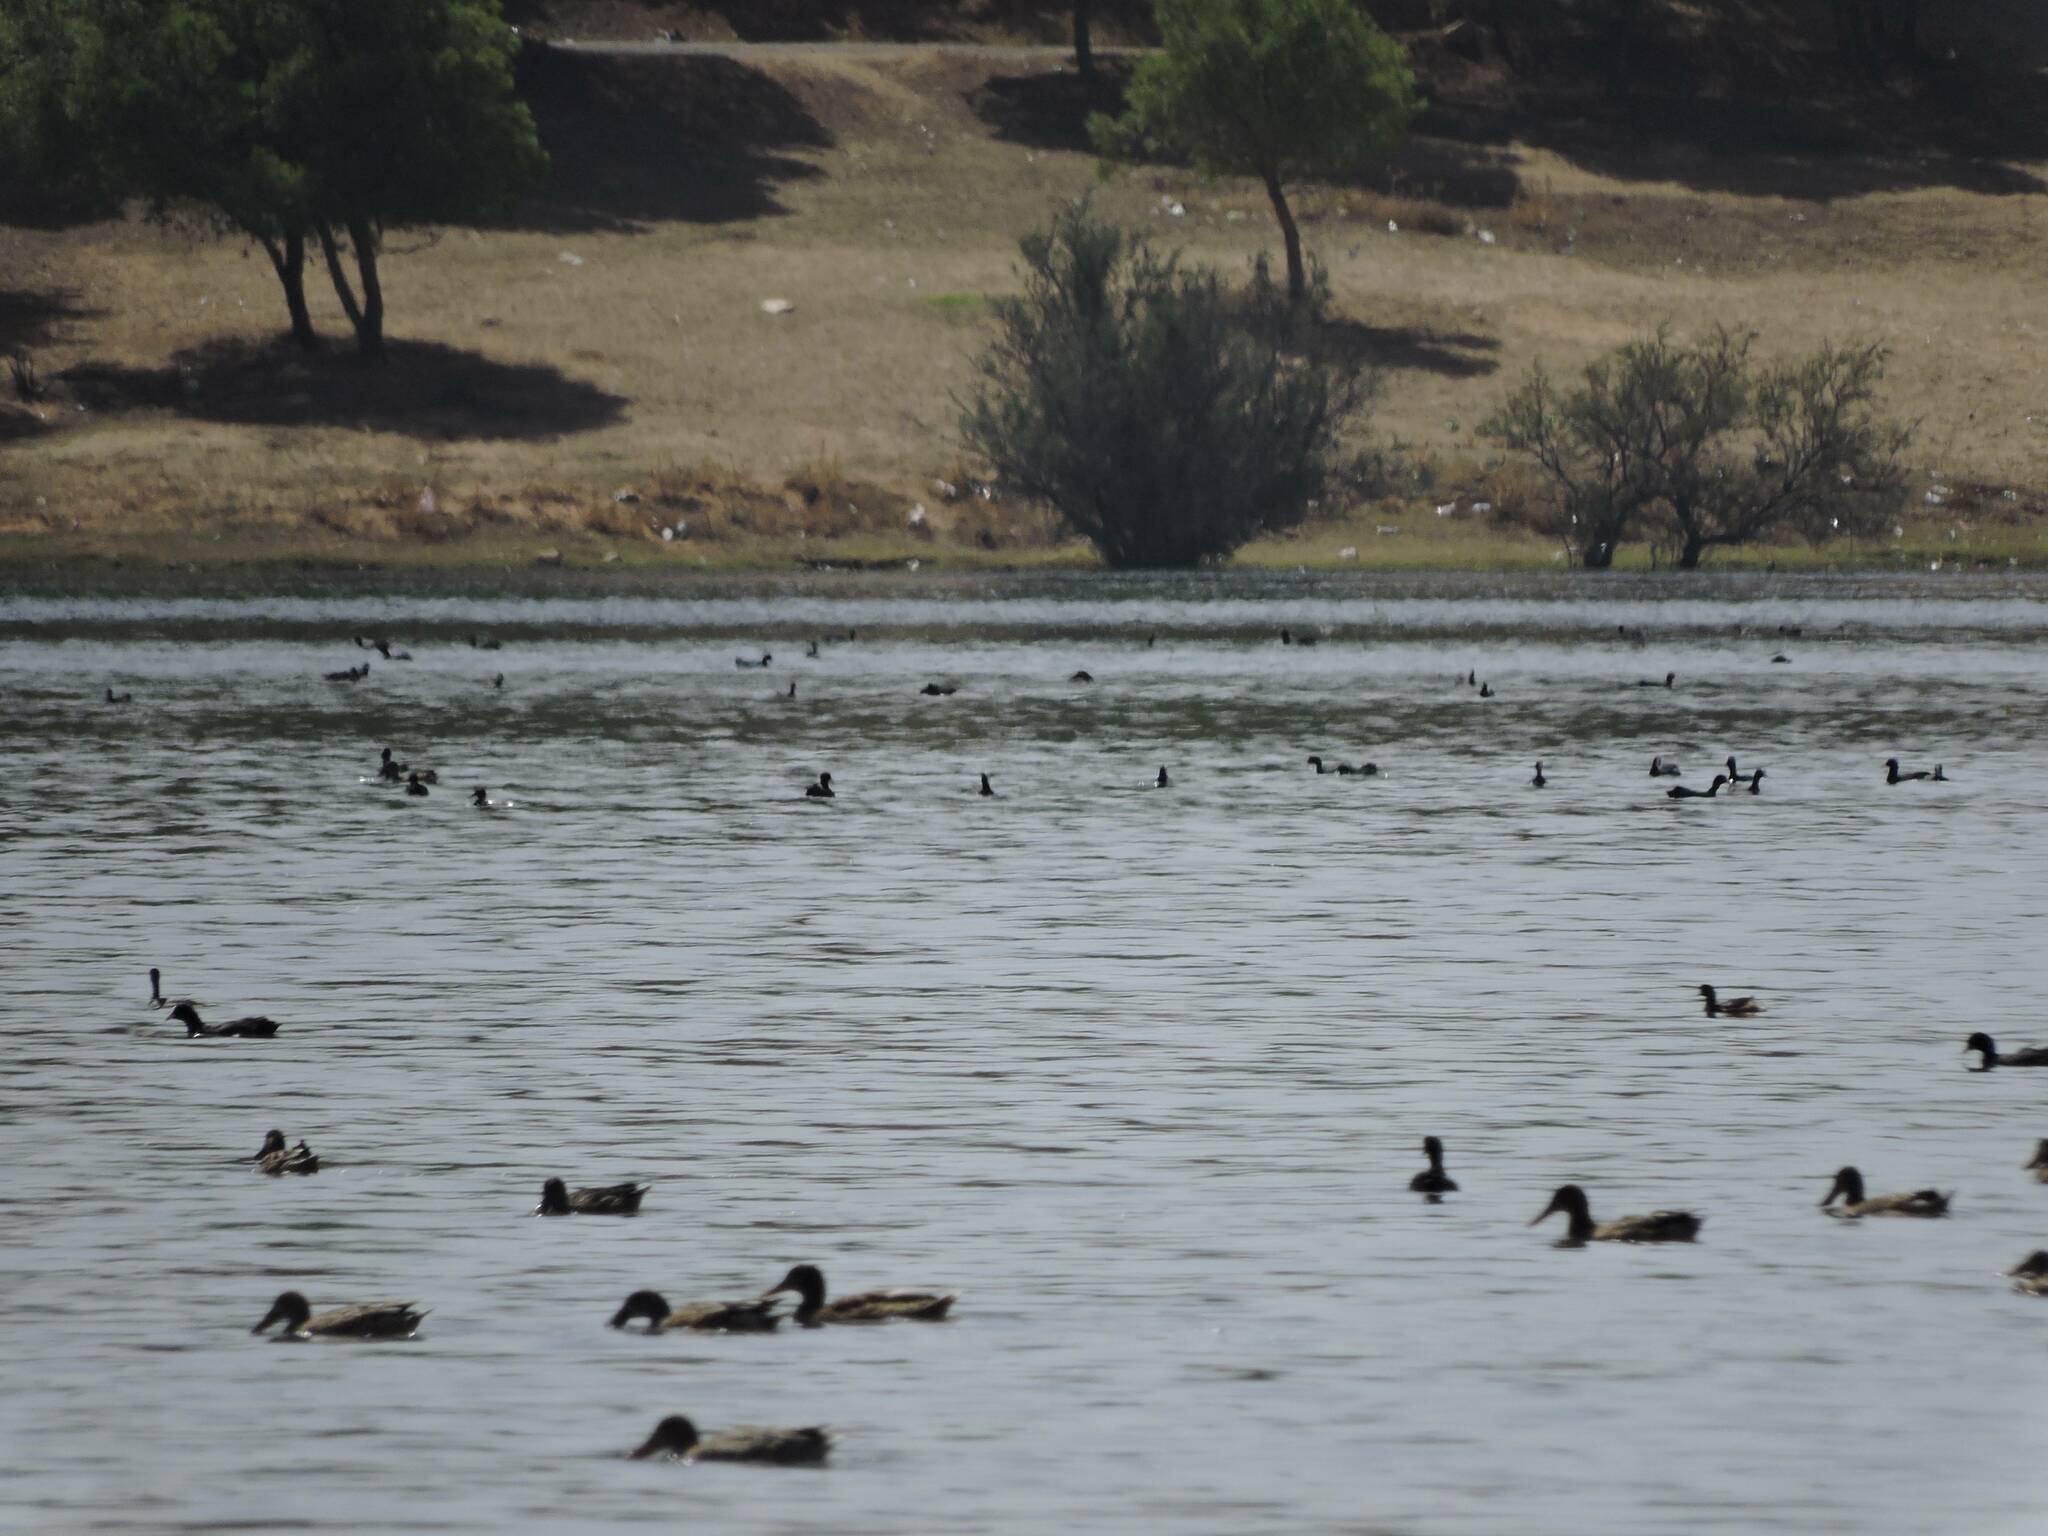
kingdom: Animalia
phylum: Chordata
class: Aves
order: Gruiformes
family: Rallidae
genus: Fulica
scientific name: Fulica atra
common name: Eurasian coot
